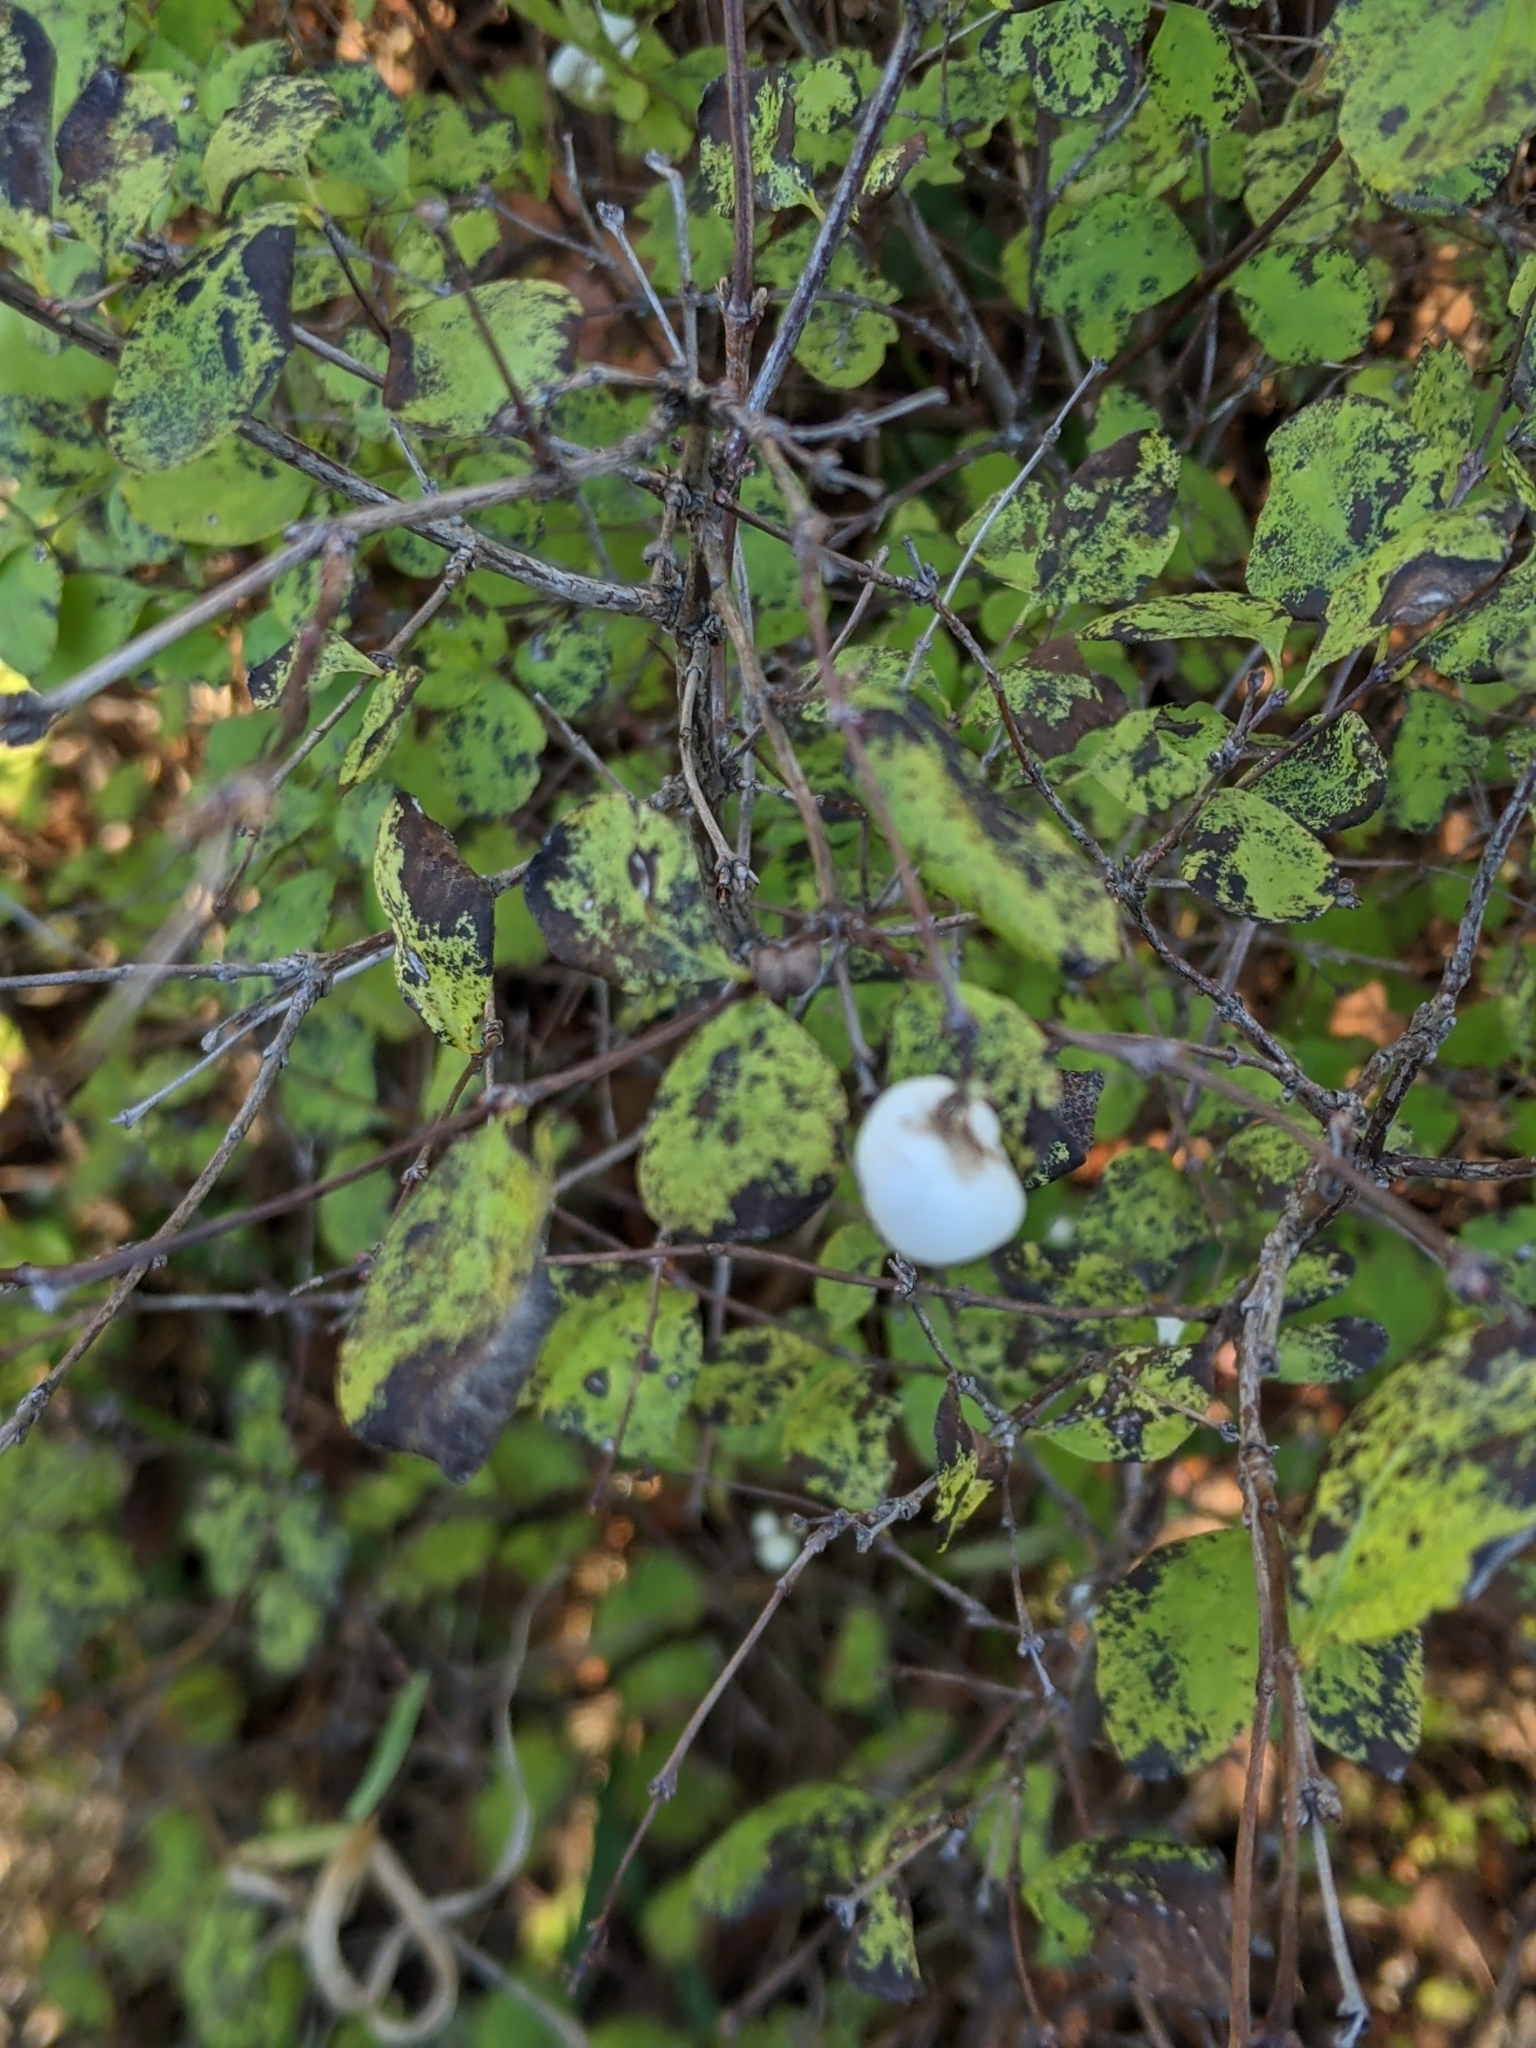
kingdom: Plantae
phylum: Tracheophyta
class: Magnoliopsida
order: Dipsacales
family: Caprifoliaceae
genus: Symphoricarpos
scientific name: Symphoricarpos albus
